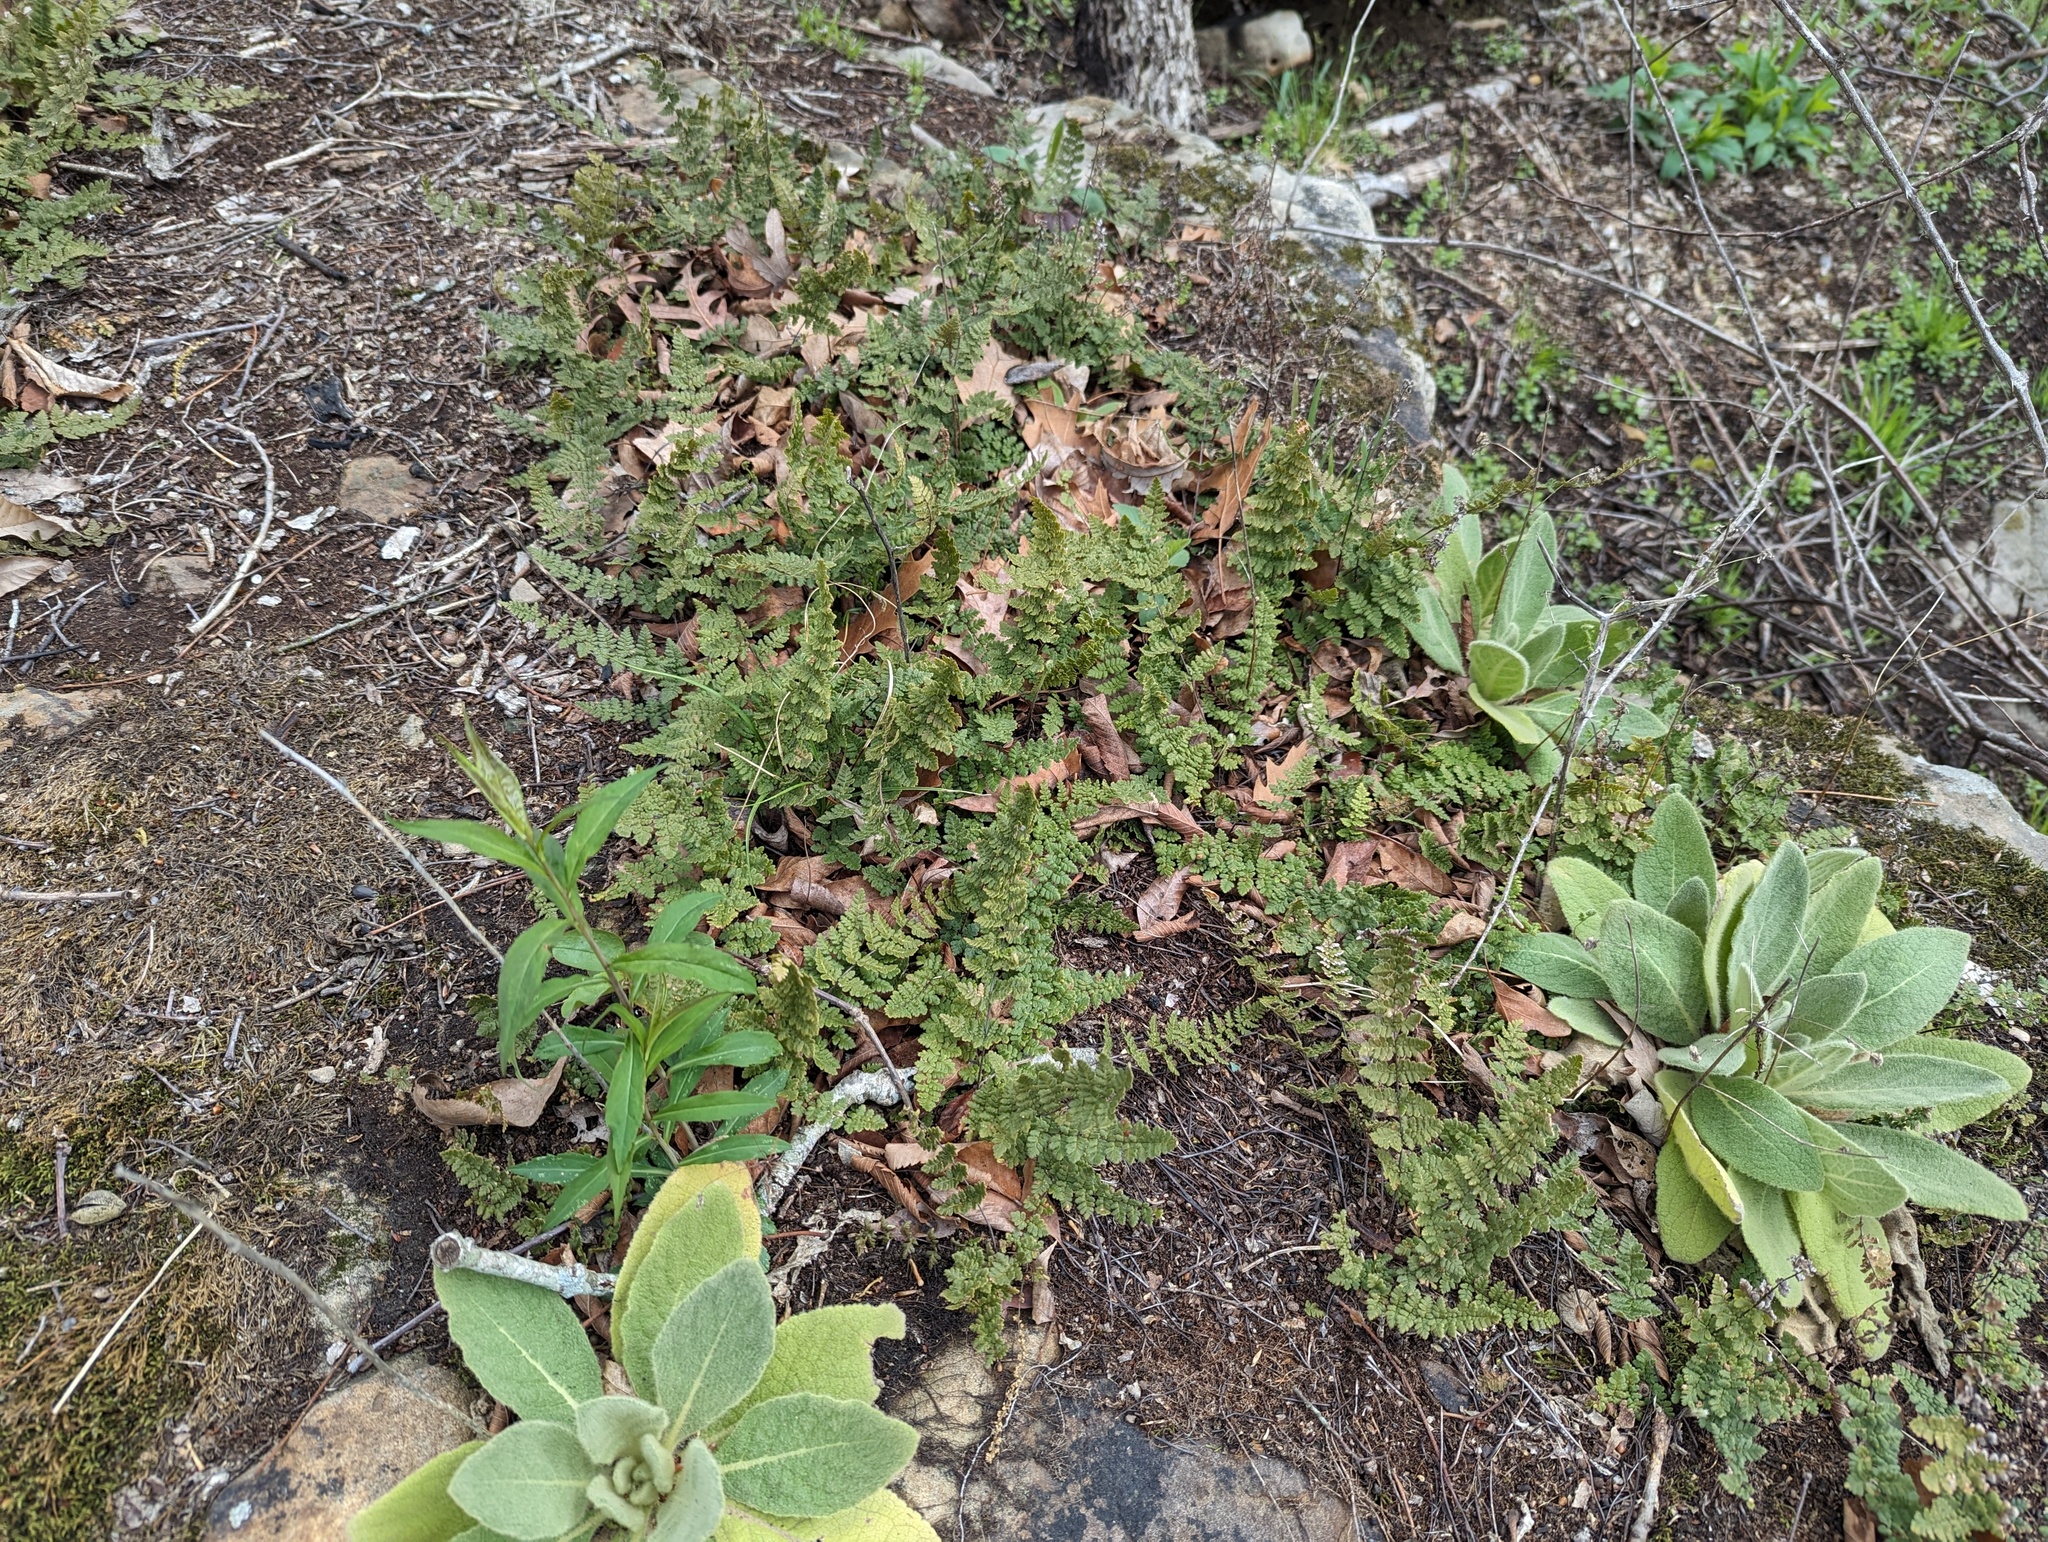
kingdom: Plantae
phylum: Tracheophyta
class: Polypodiopsida
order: Polypodiales
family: Pteridaceae
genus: Myriopteris
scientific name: Myriopteris lanosa
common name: Hairy lip fern
